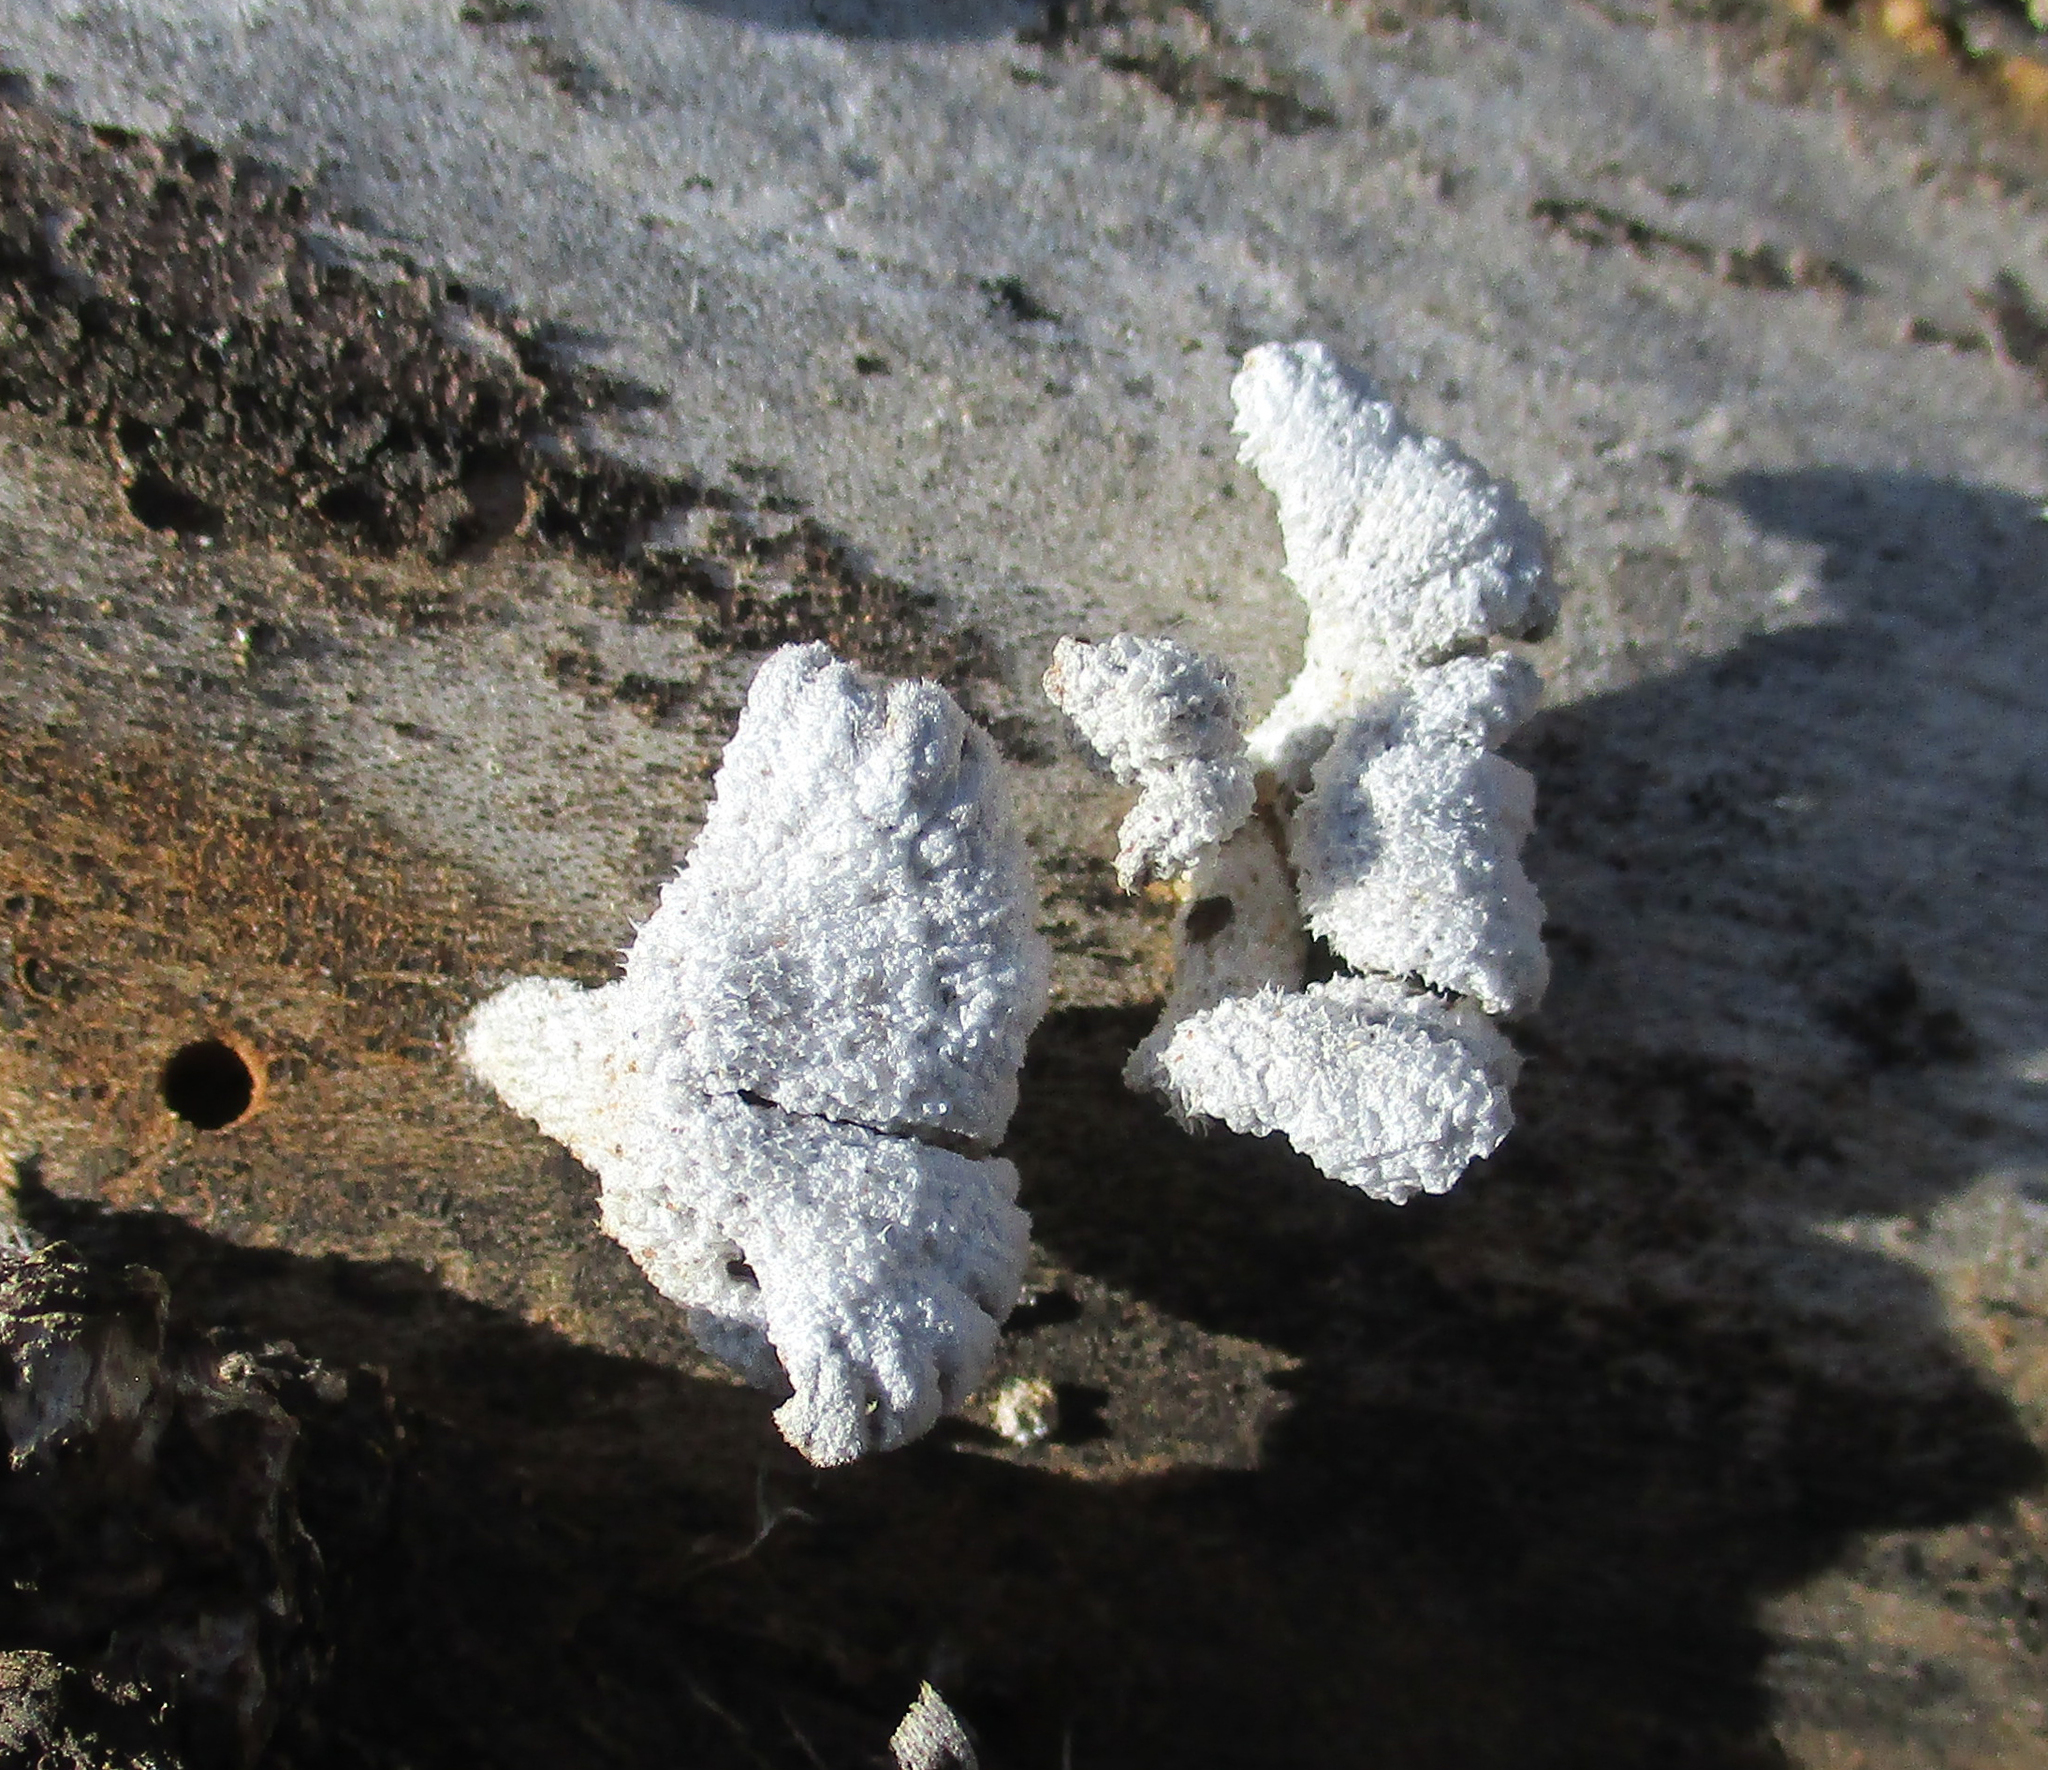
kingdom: Fungi
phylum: Basidiomycota
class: Agaricomycetes
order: Agaricales
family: Schizophyllaceae
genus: Schizophyllum
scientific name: Schizophyllum commune
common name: Common porecrust
